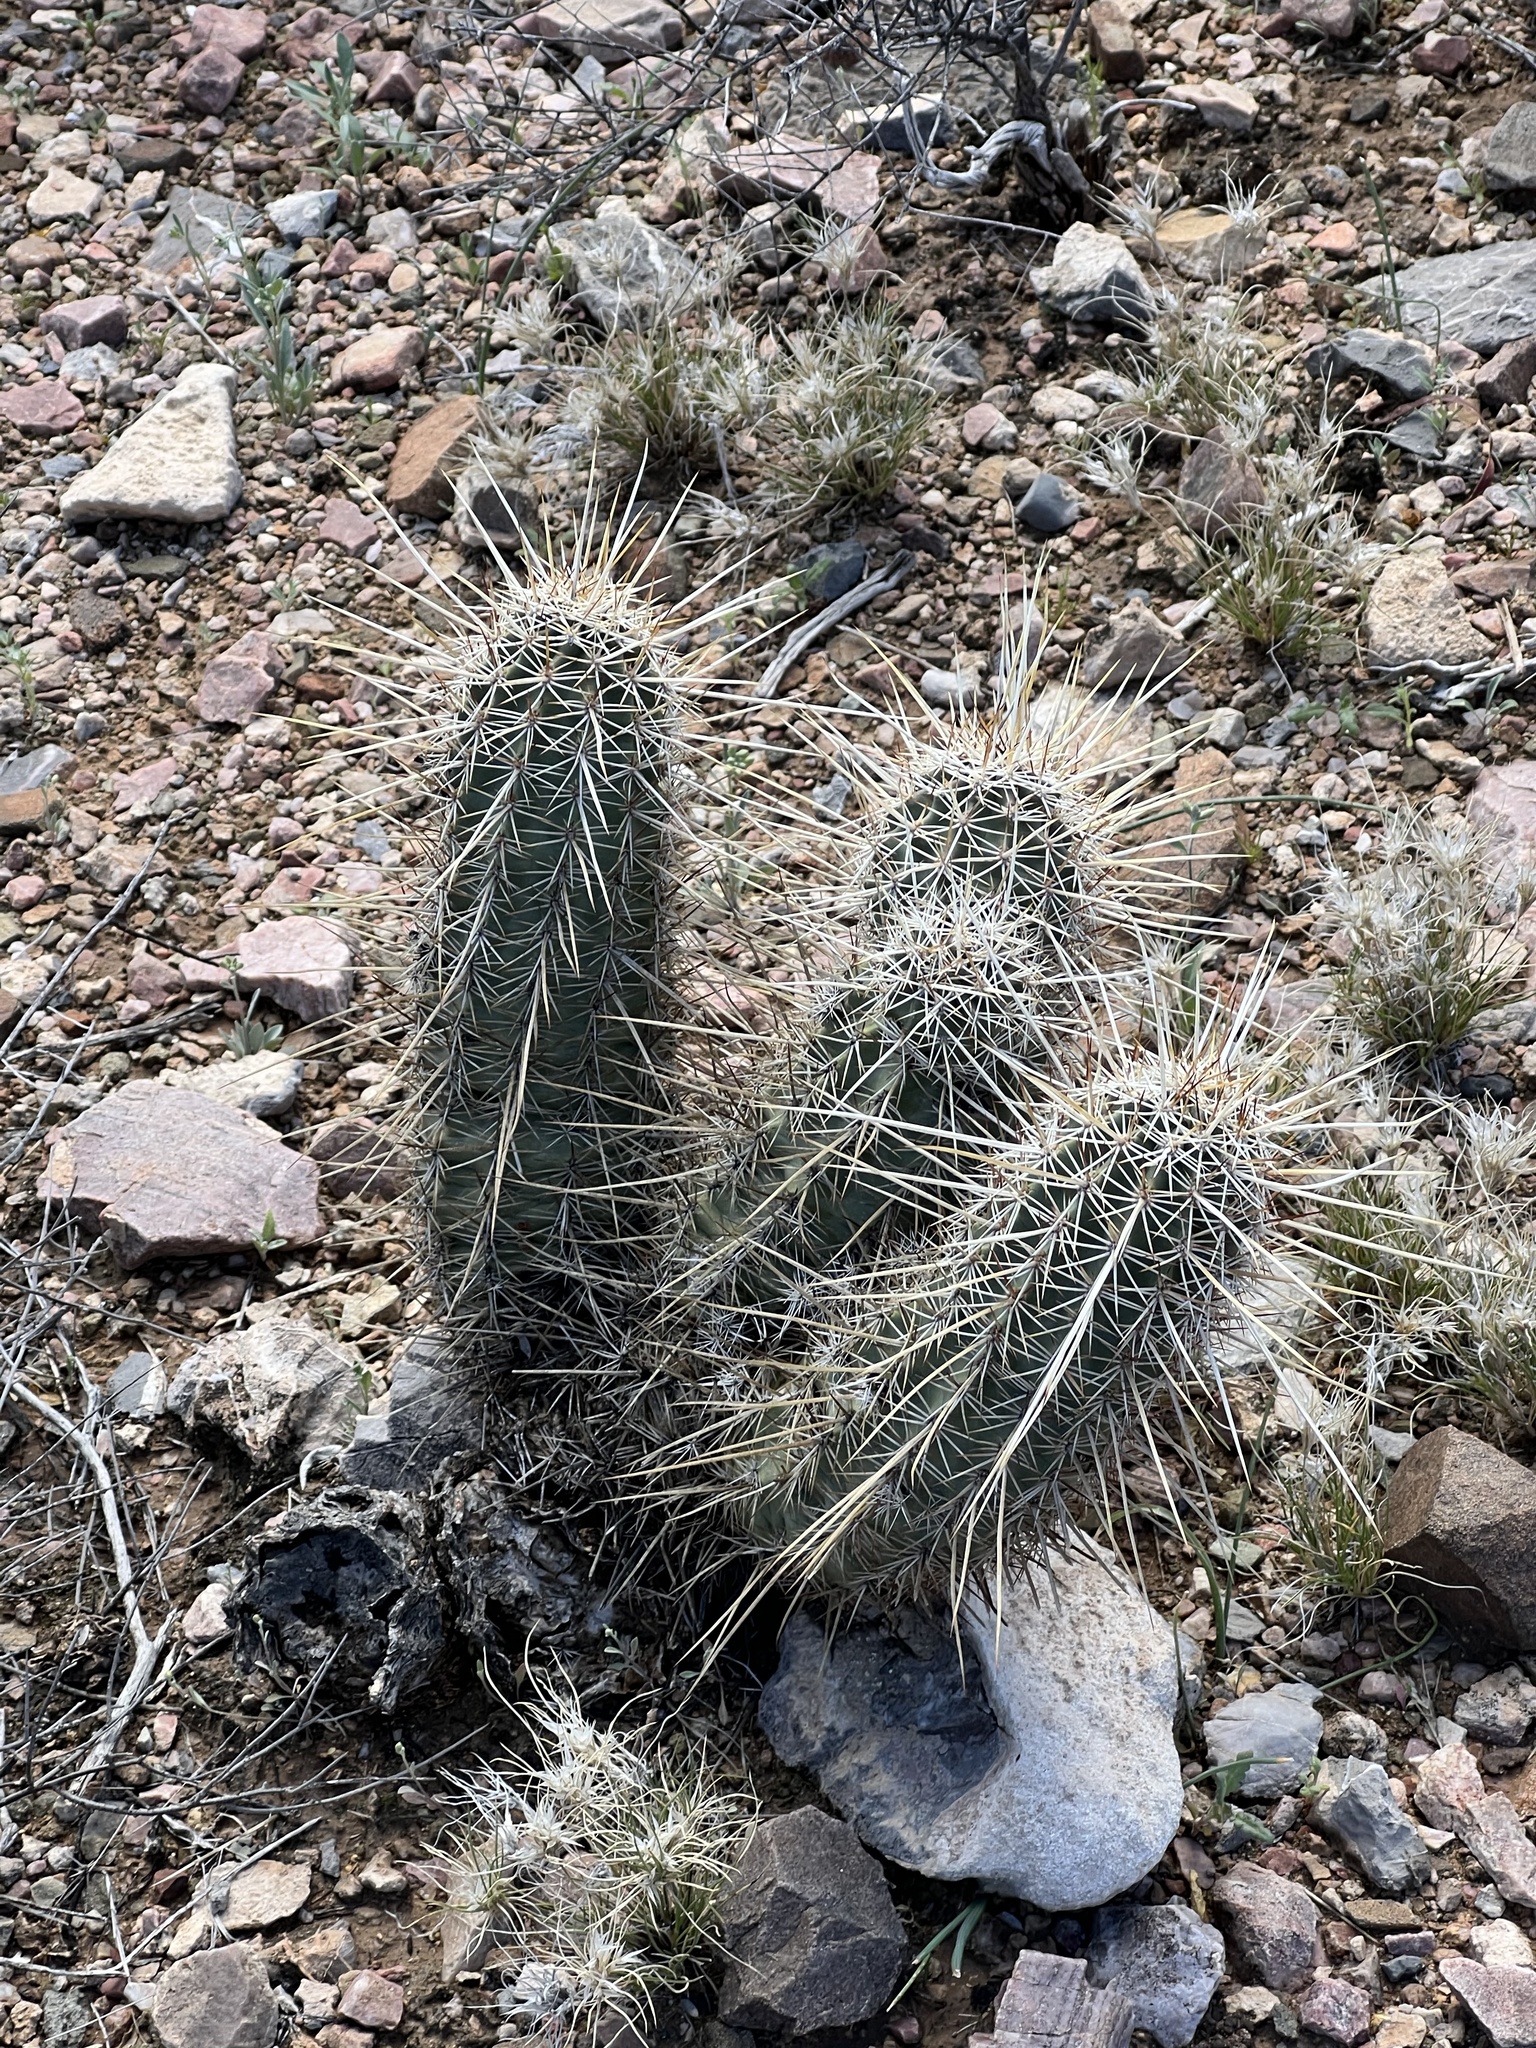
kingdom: Plantae
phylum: Tracheophyta
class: Magnoliopsida
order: Caryophyllales
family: Cactaceae
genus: Echinocereus
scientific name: Echinocereus fasciculatus
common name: Bundle hedgehog
